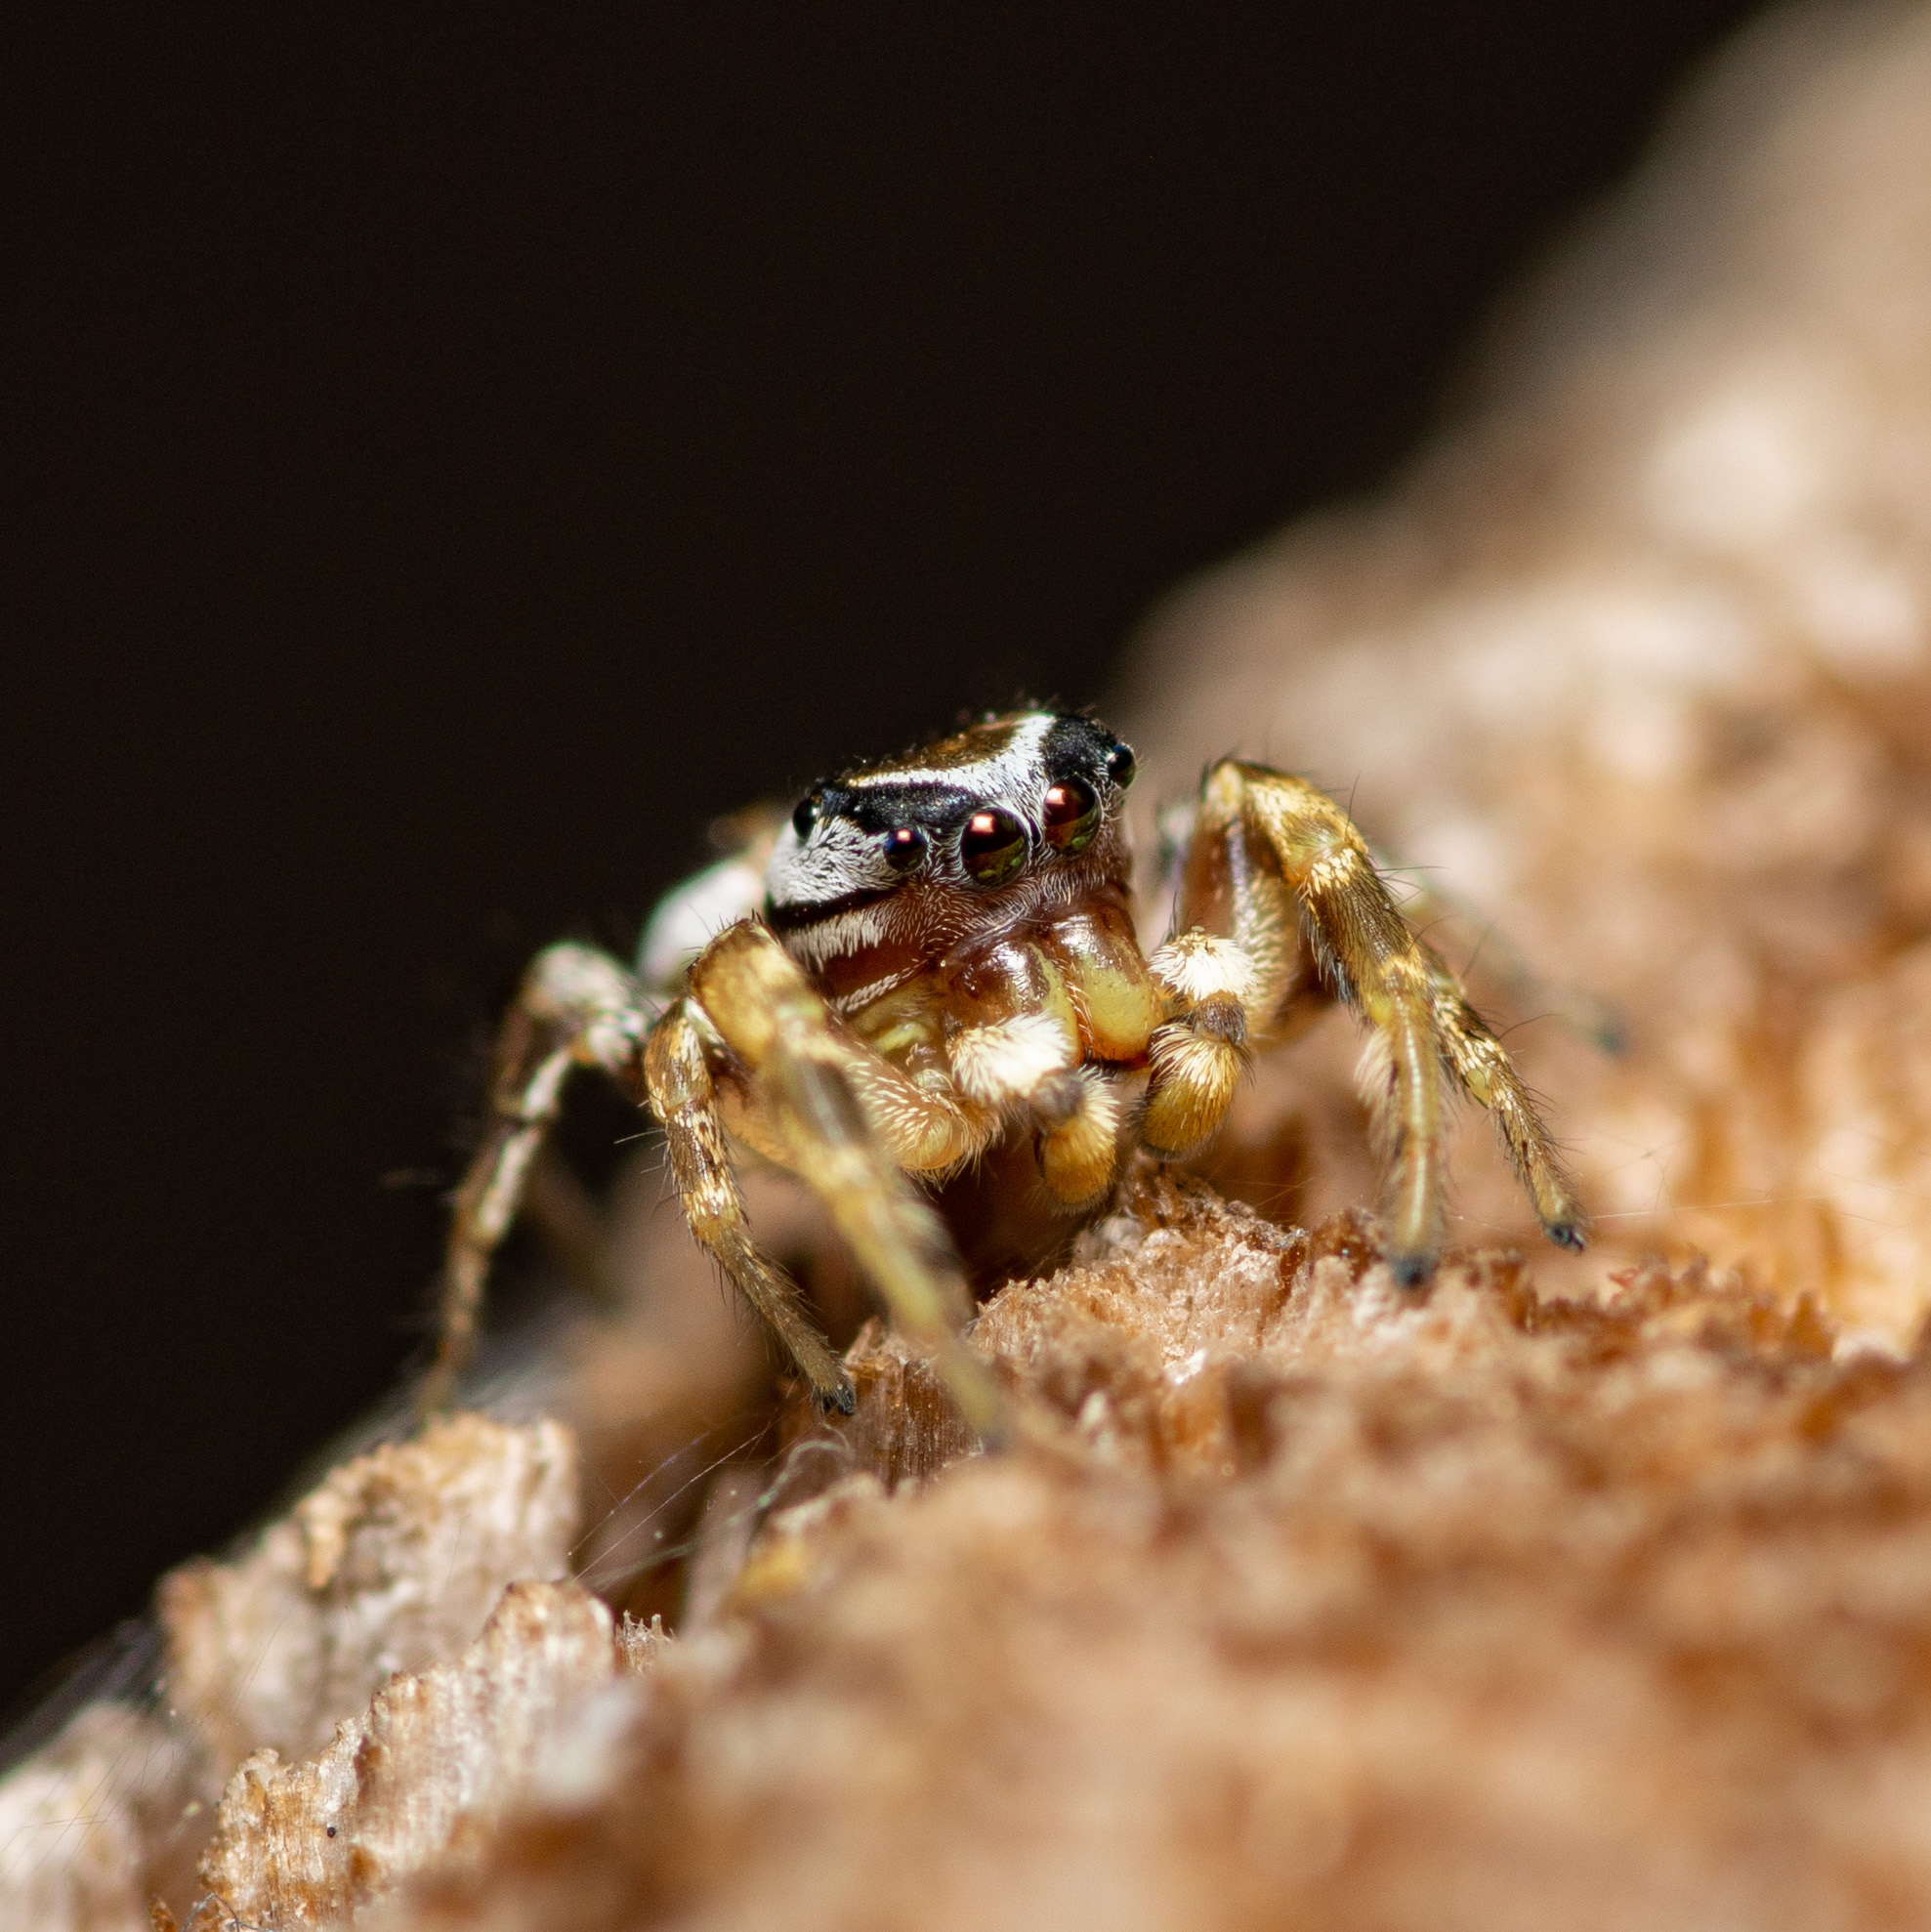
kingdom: Animalia
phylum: Arthropoda
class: Arachnida
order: Araneae
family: Salticidae
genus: Pelegrina
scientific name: Pelegrina pervaga
